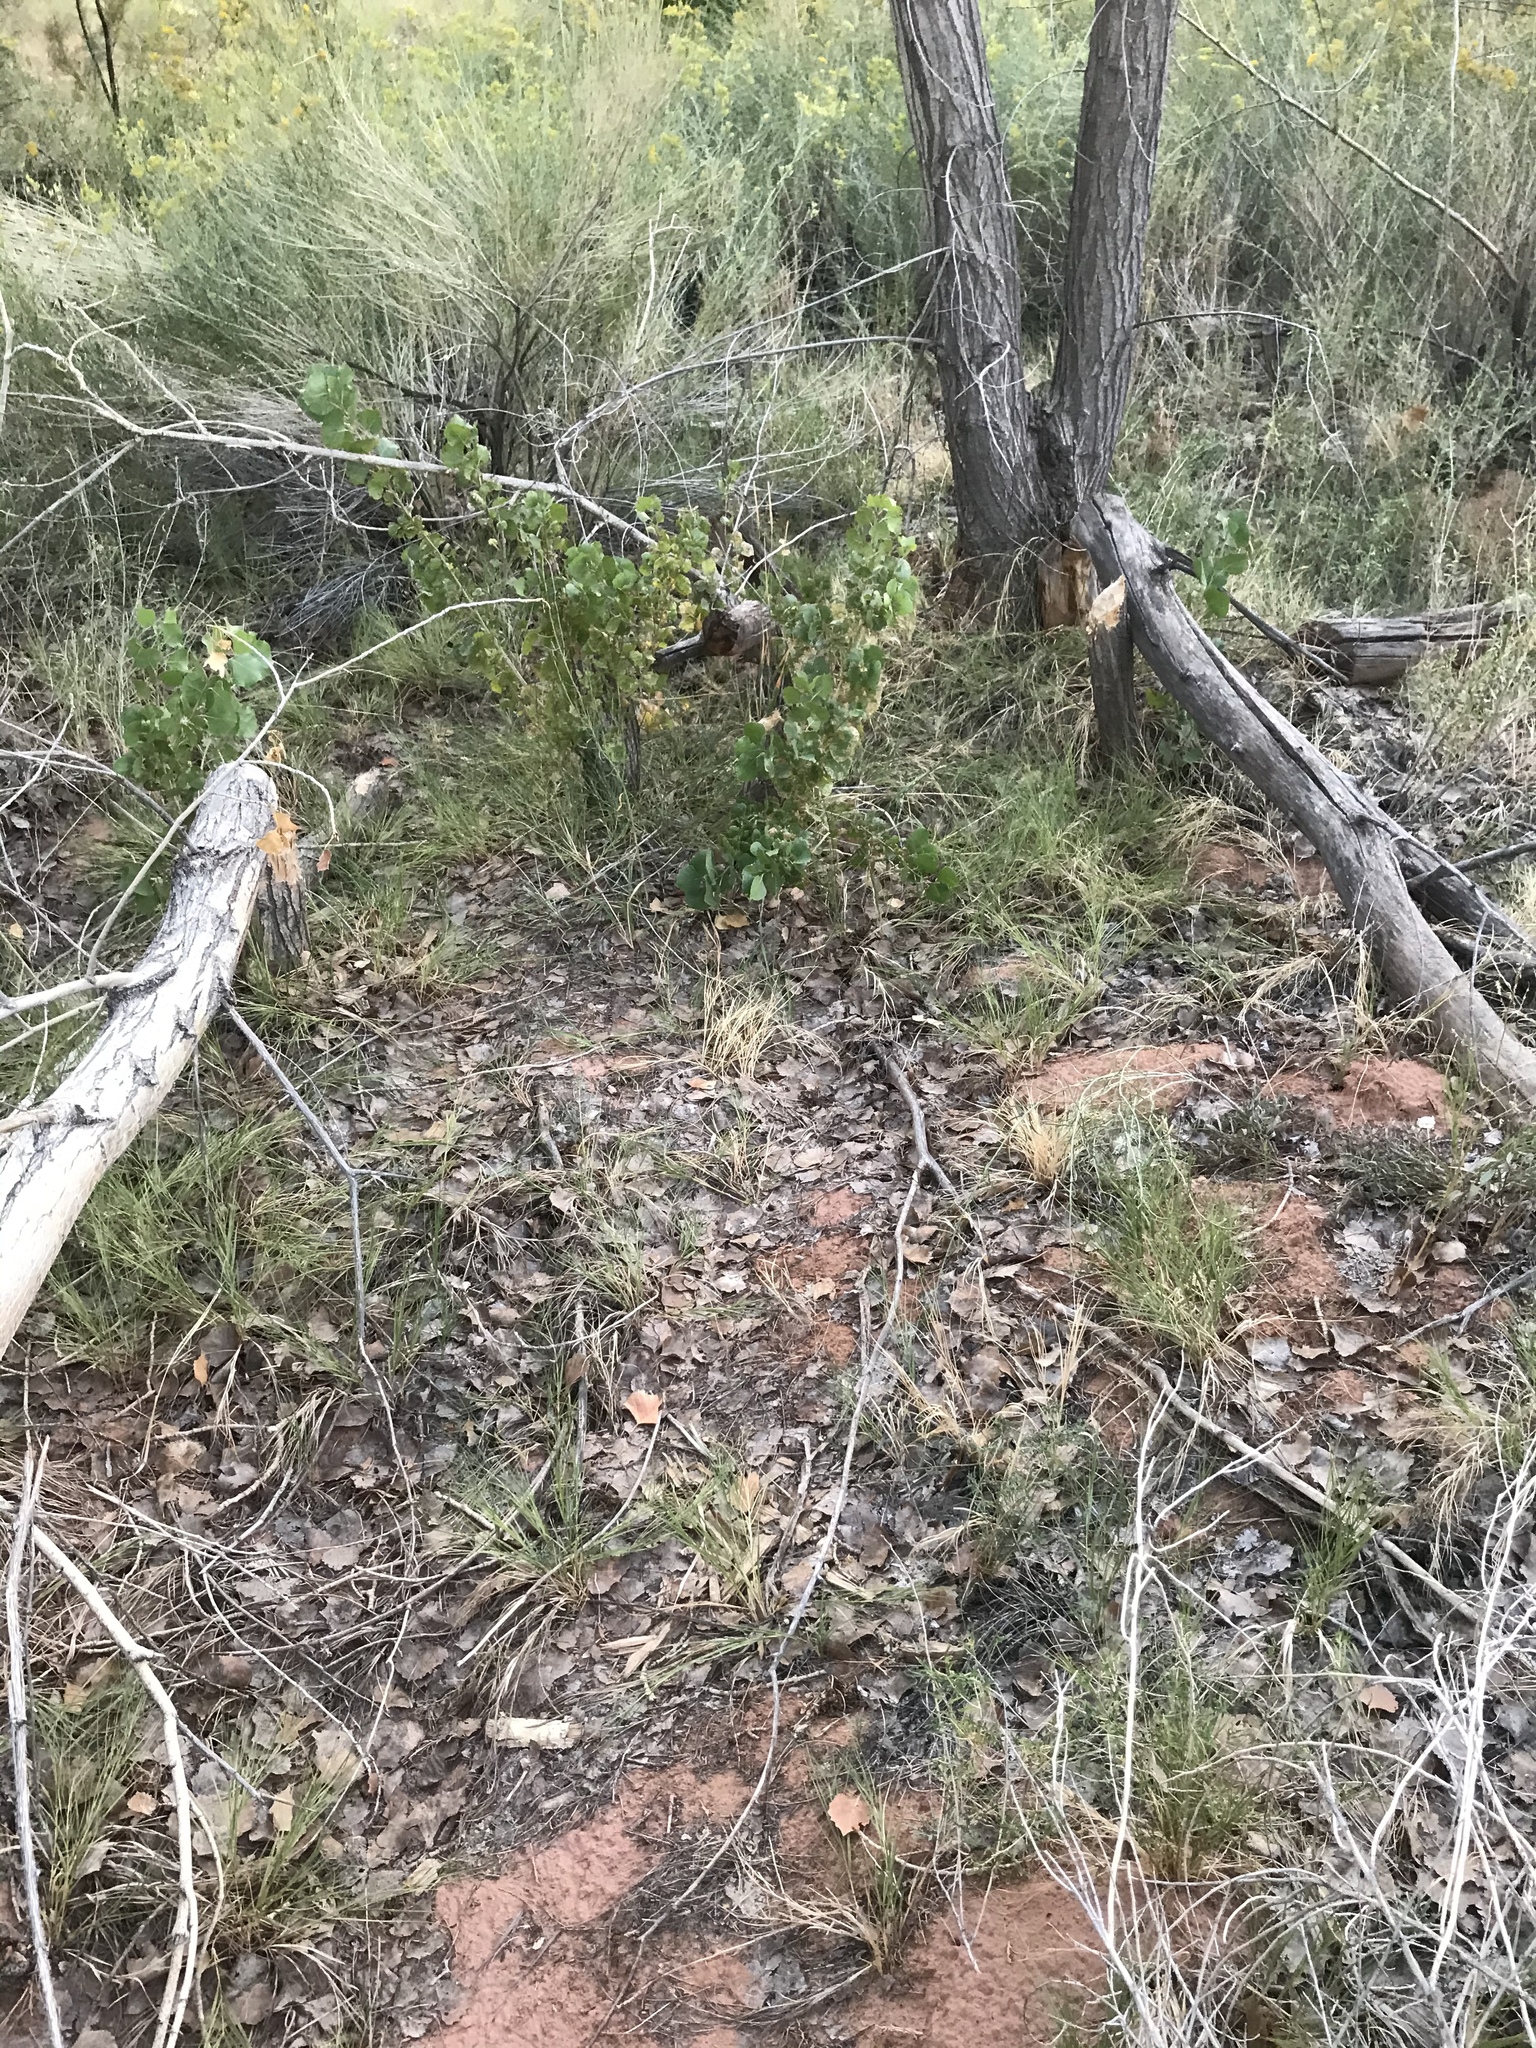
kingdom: Animalia
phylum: Chordata
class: Mammalia
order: Rodentia
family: Castoridae
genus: Castor
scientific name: Castor canadensis
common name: American beaver
